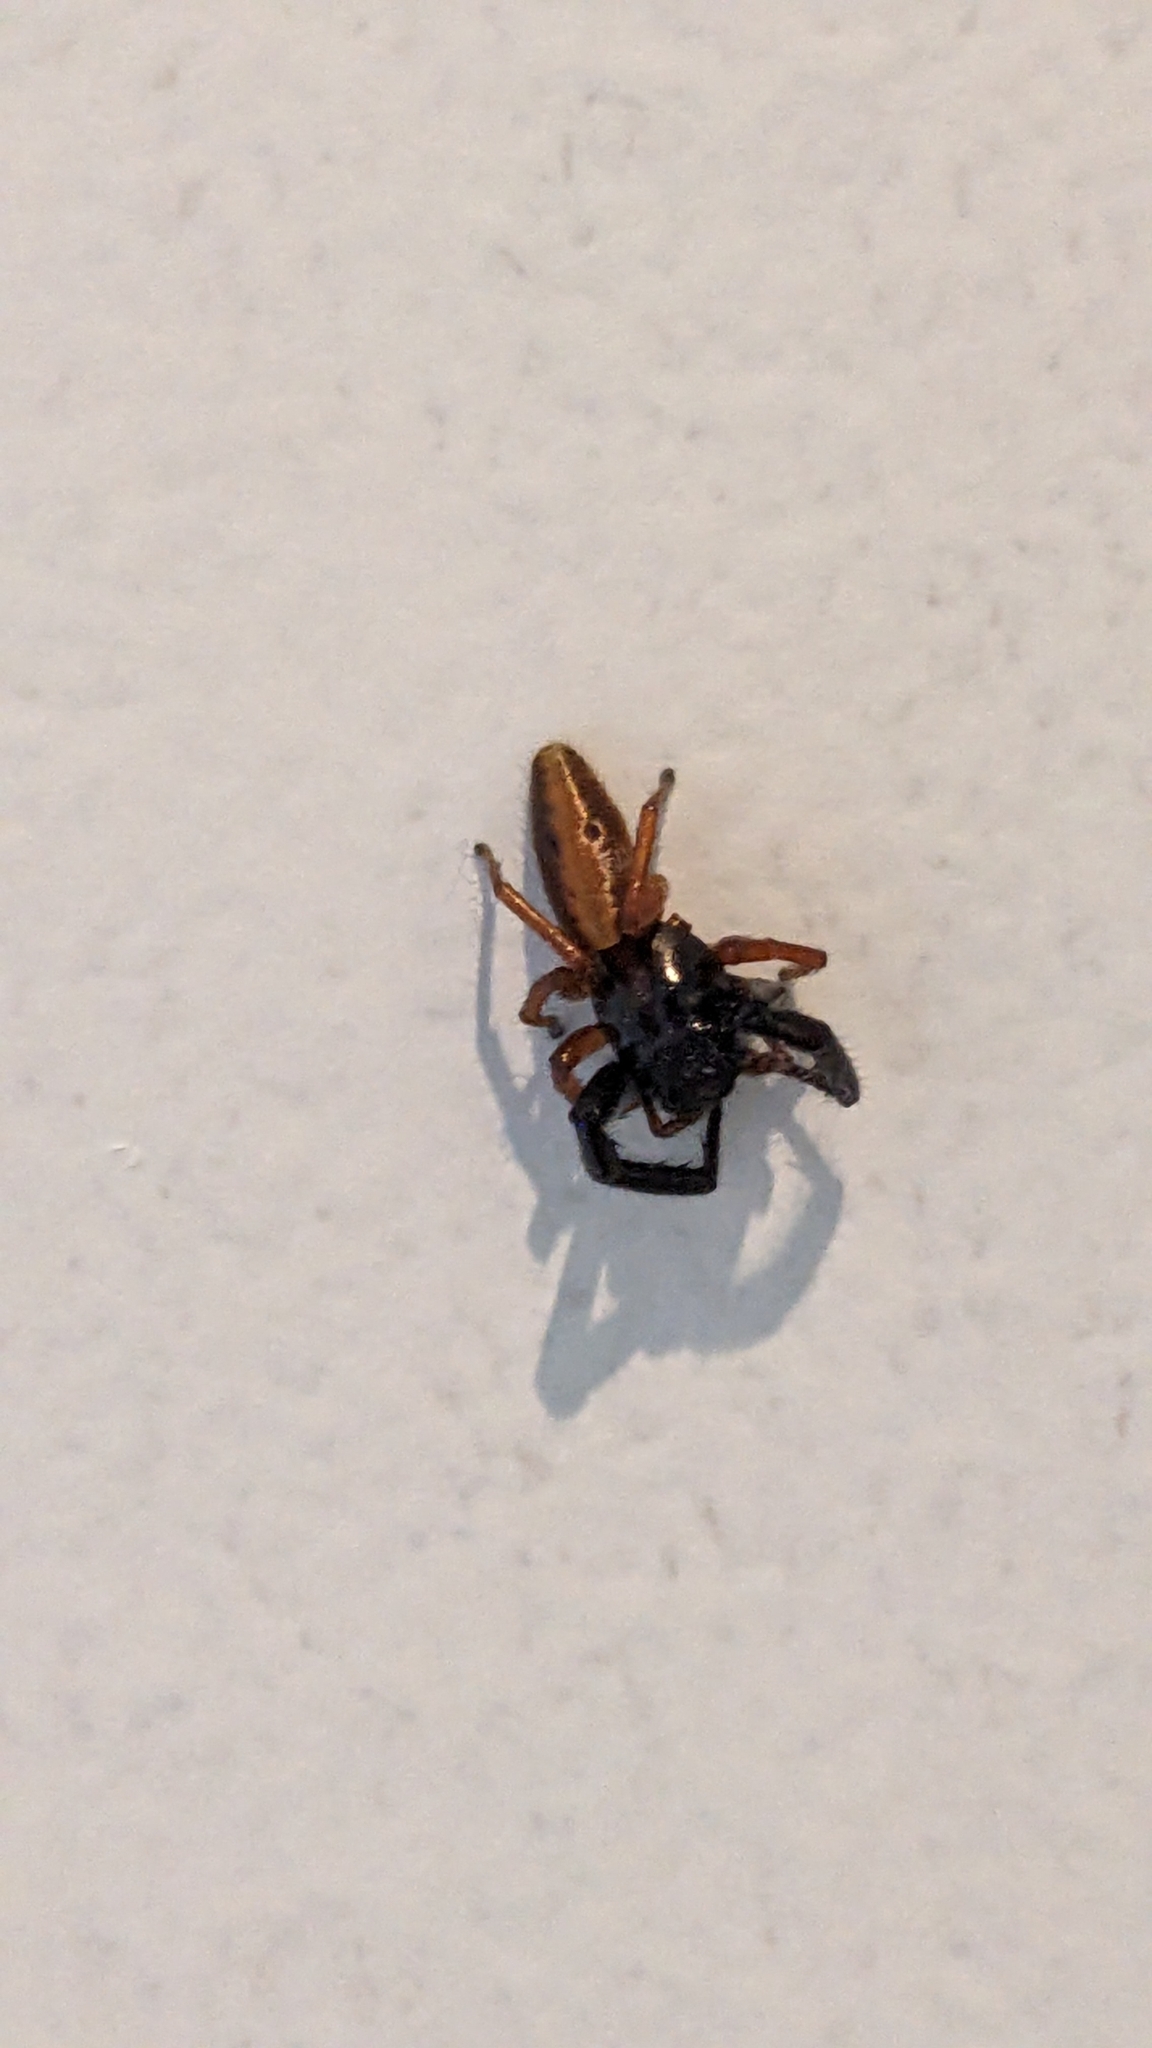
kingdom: Animalia
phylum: Arthropoda
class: Arachnida
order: Araneae
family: Salticidae
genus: Trite
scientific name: Trite planiceps
